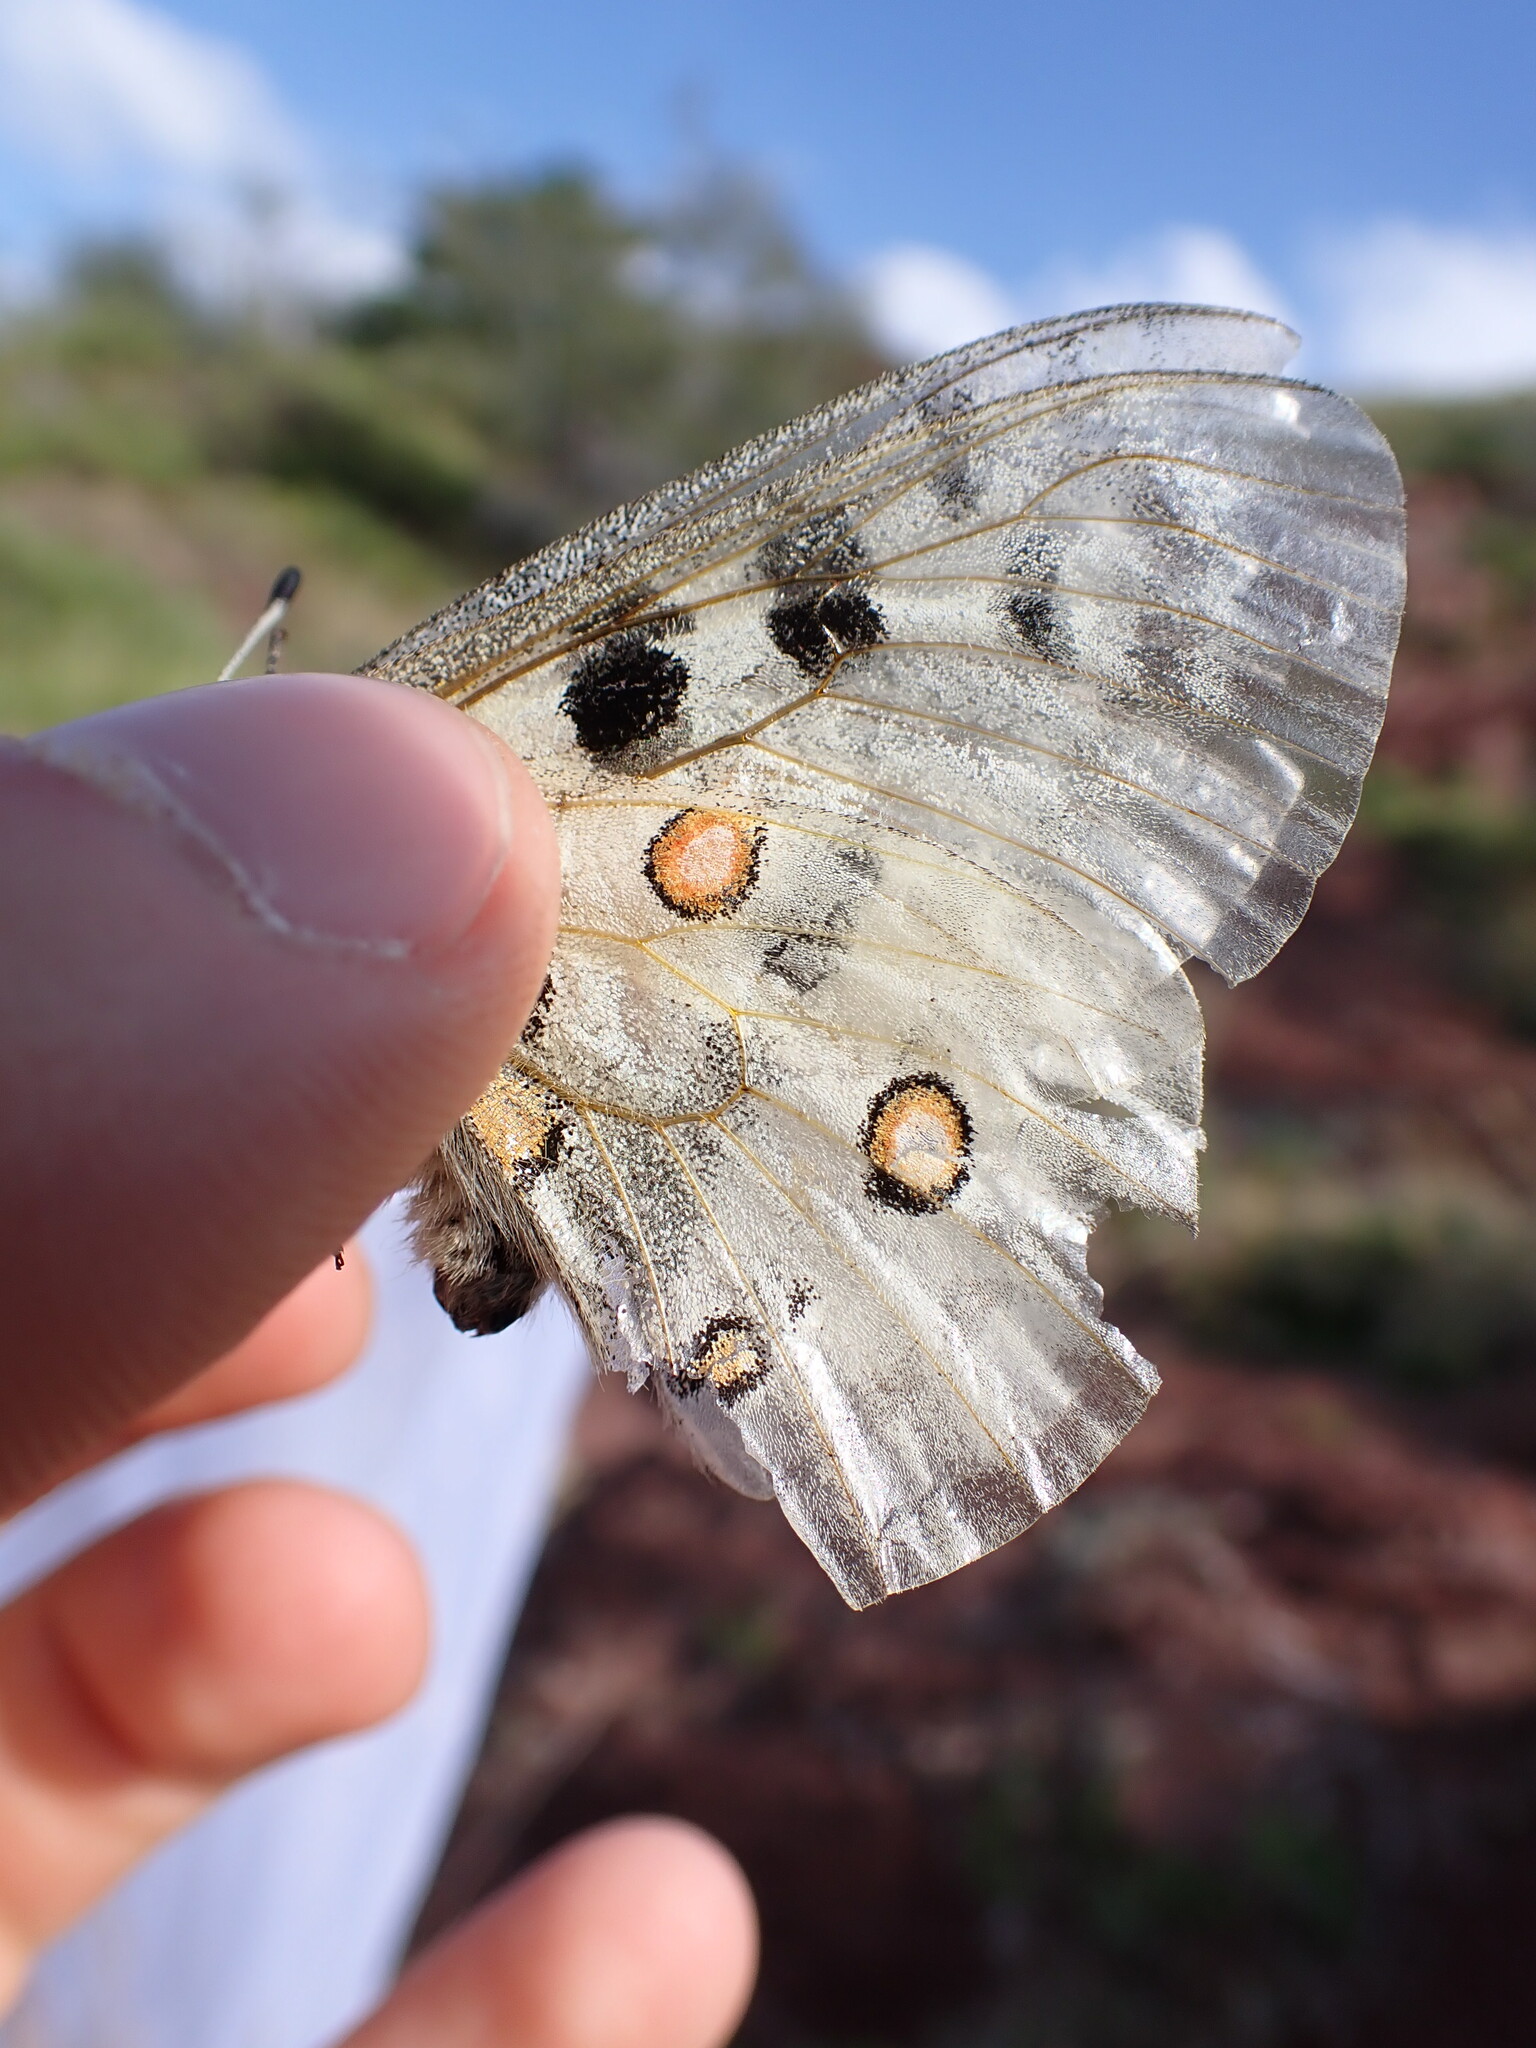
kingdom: Animalia
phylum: Arthropoda
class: Insecta
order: Lepidoptera
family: Papilionidae
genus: Parnassius
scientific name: Parnassius apollo
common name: Apollo
